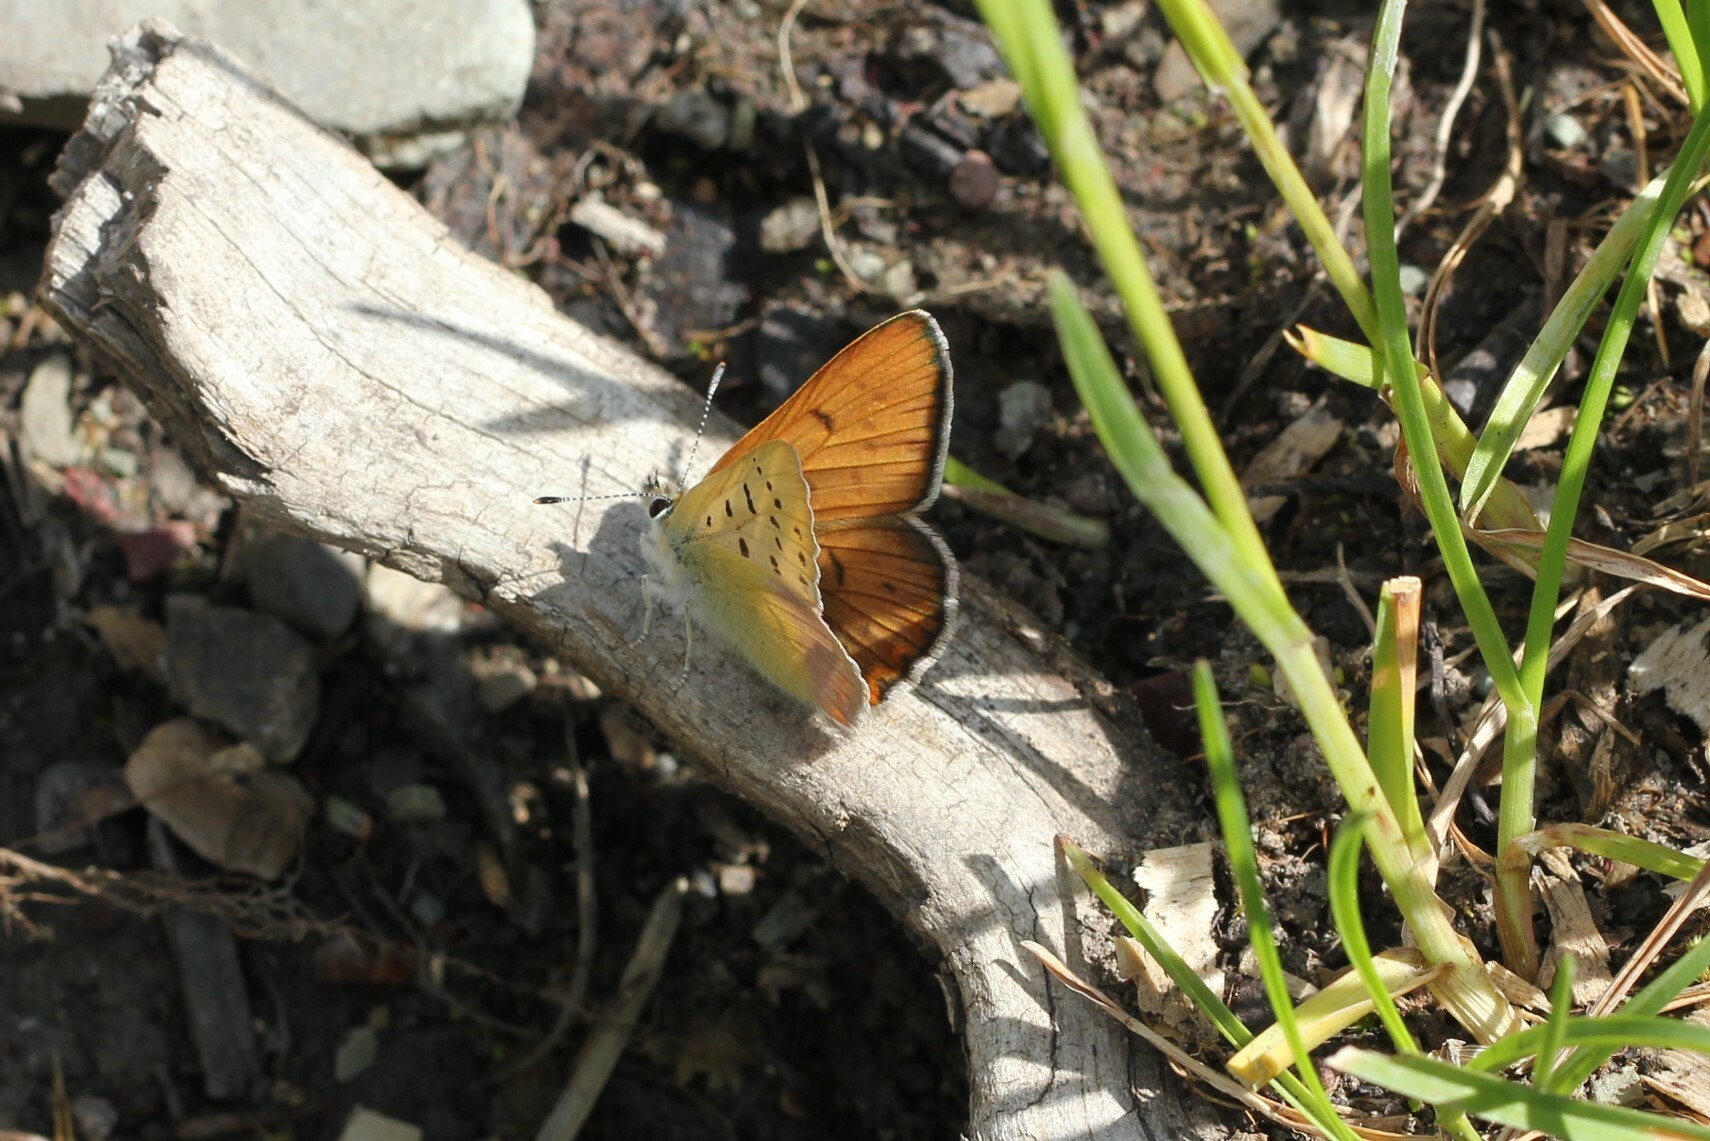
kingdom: Animalia
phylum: Arthropoda
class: Insecta
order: Lepidoptera
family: Lycaenidae
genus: Tharsalea
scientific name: Tharsalea nivalis
